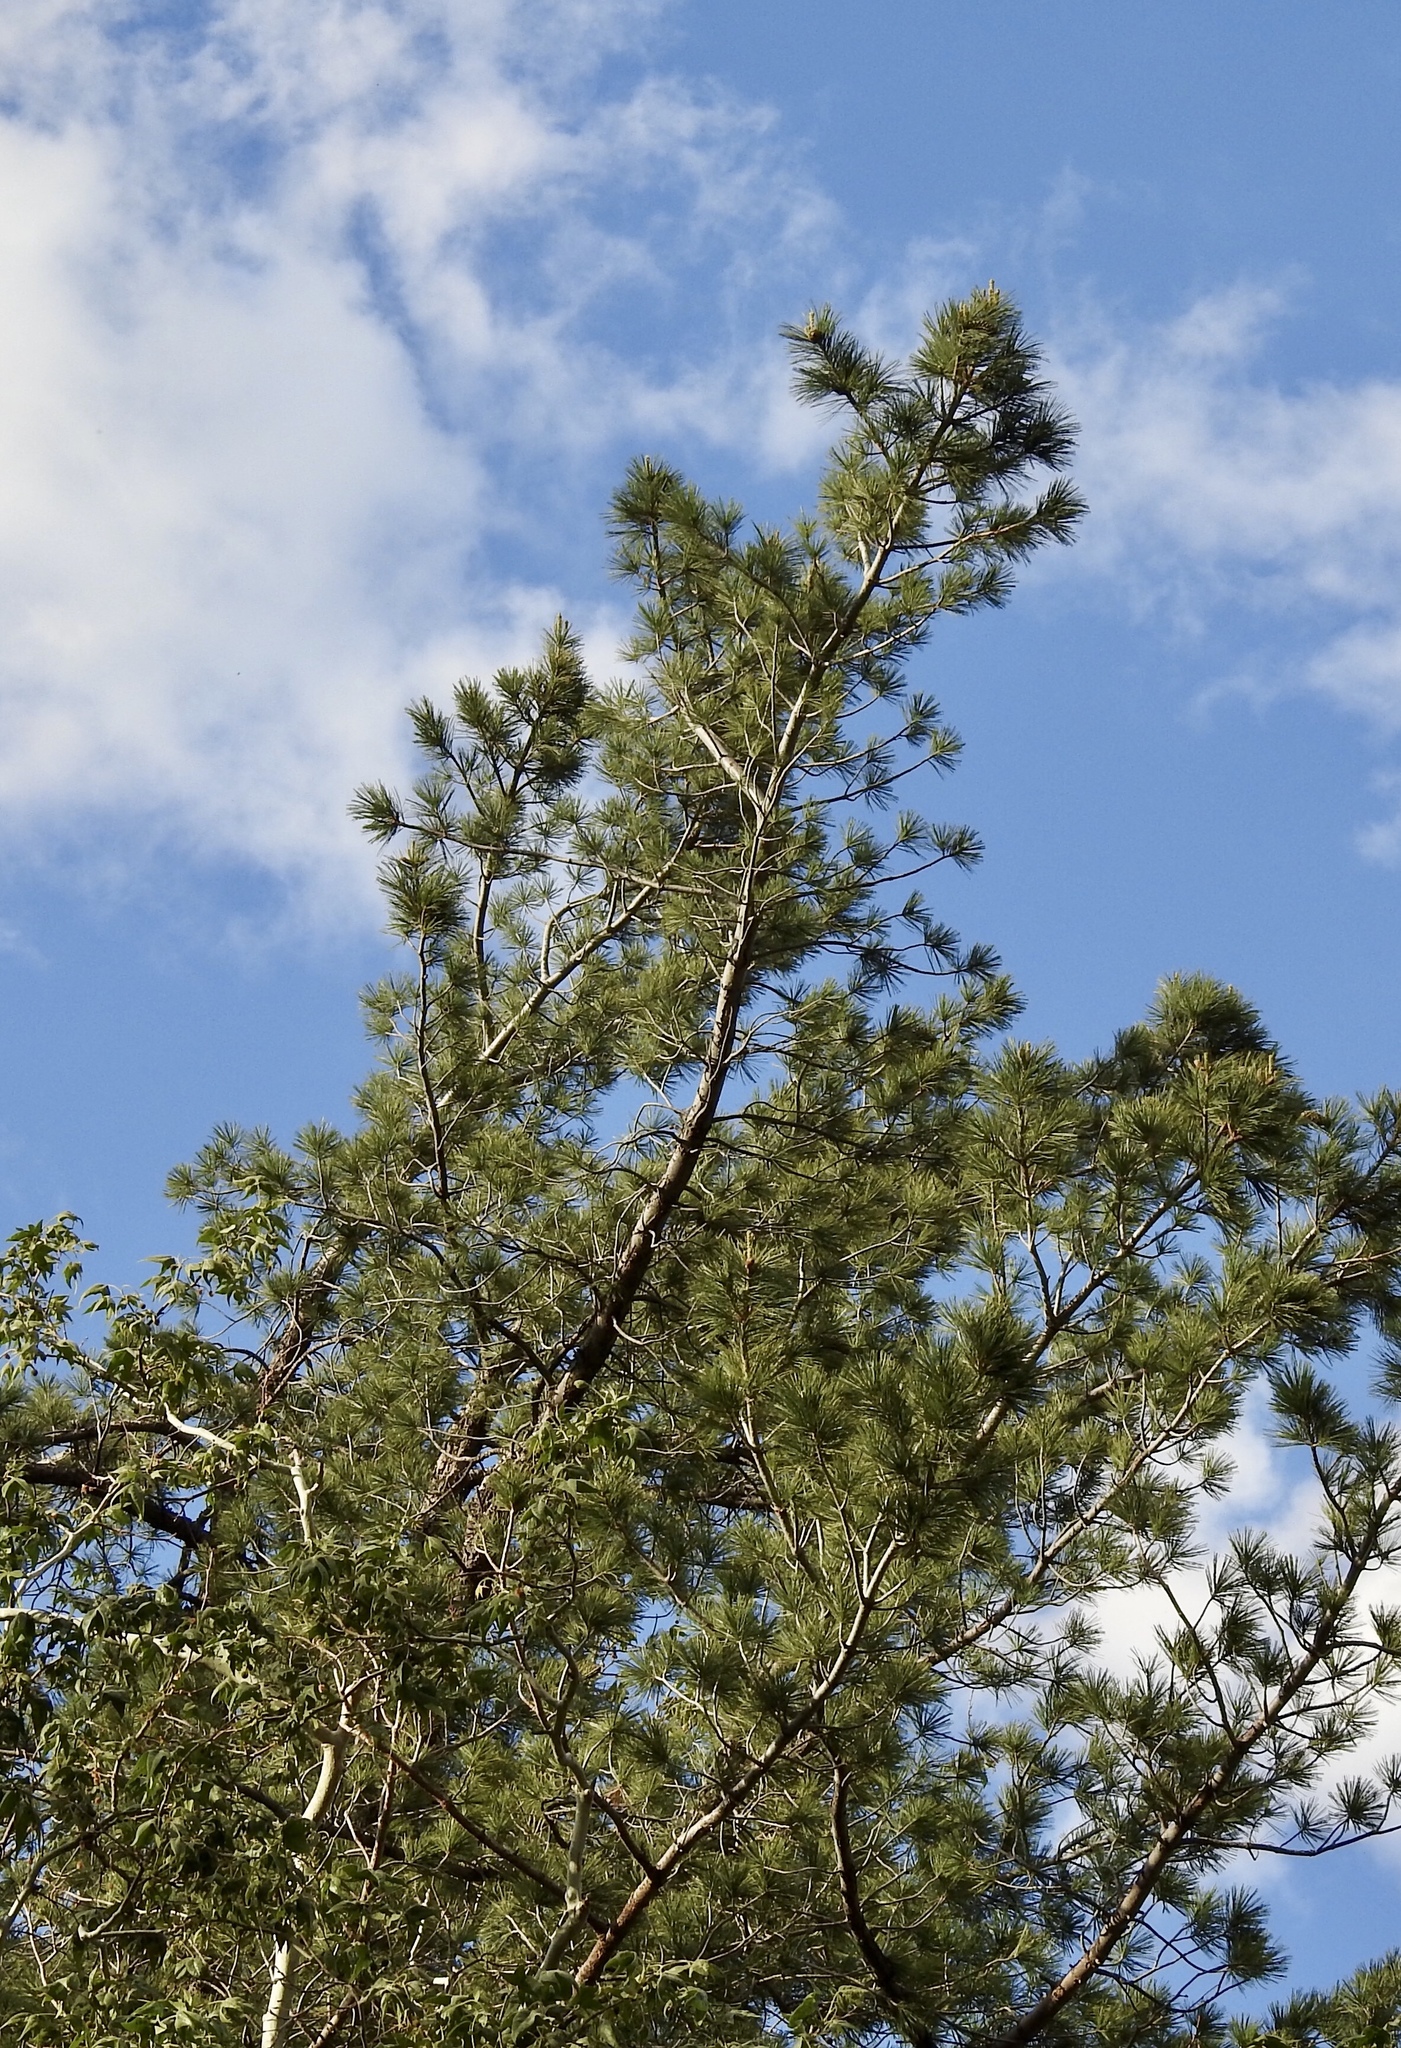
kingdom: Plantae
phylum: Tracheophyta
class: Pinopsida
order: Pinales
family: Pinaceae
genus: Pinus
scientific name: Pinus strobiformis
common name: Southwestern white pine
